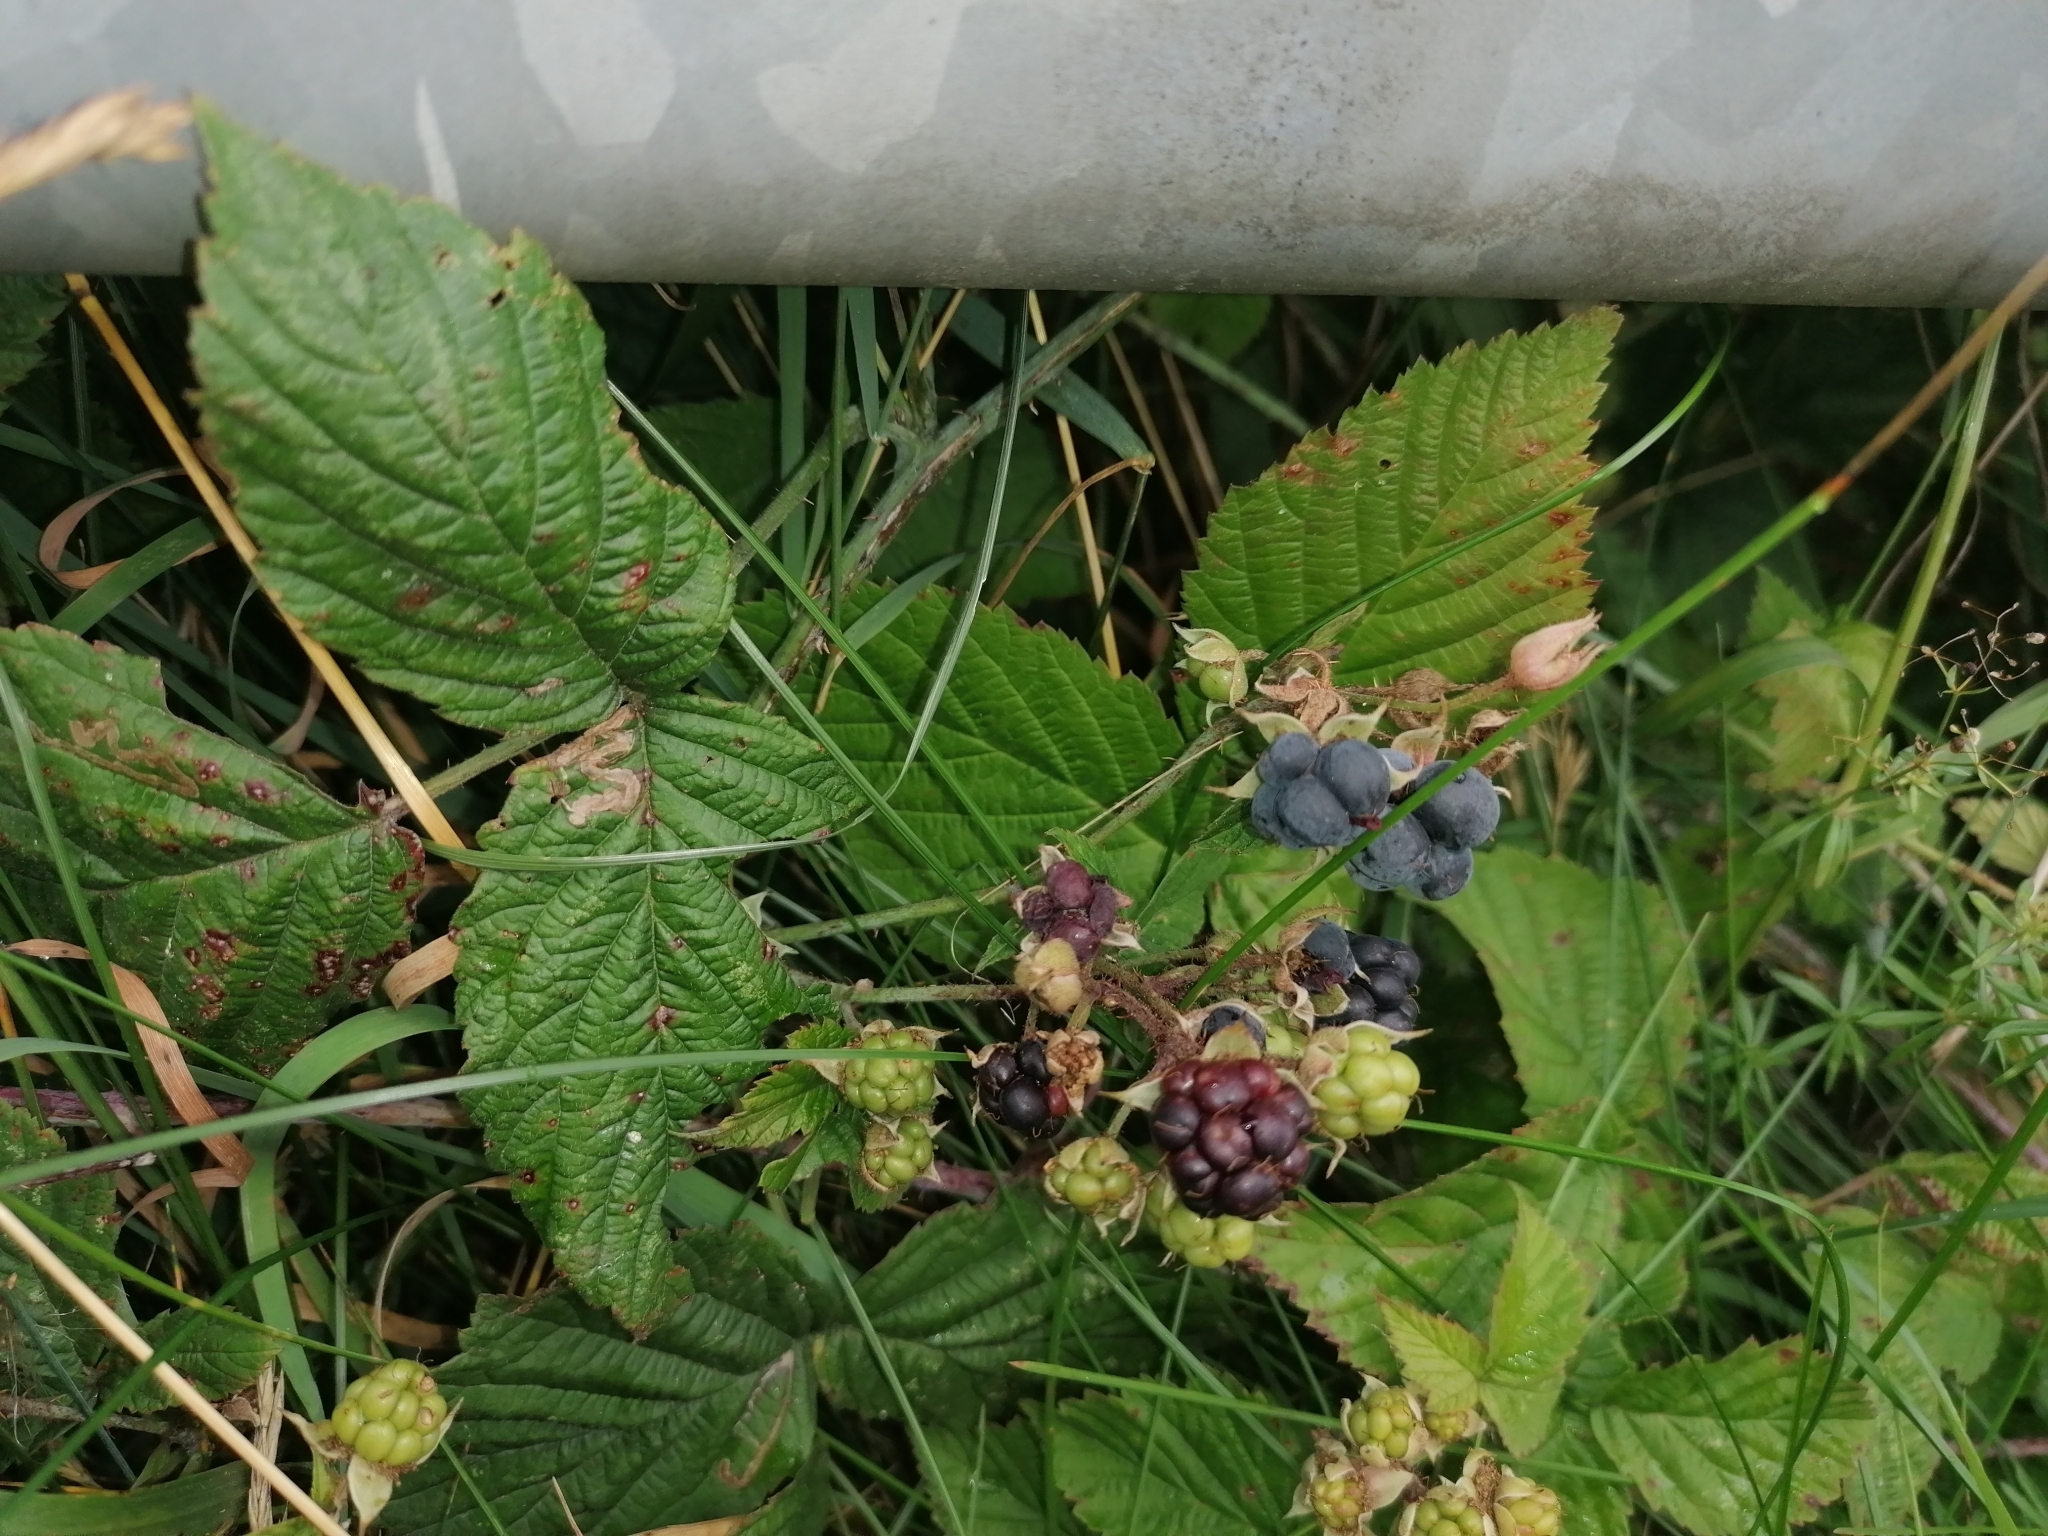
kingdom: Plantae
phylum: Tracheophyta
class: Magnoliopsida
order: Rosales
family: Rosaceae
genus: Rubus
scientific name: Rubus caesius
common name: Dewberry
